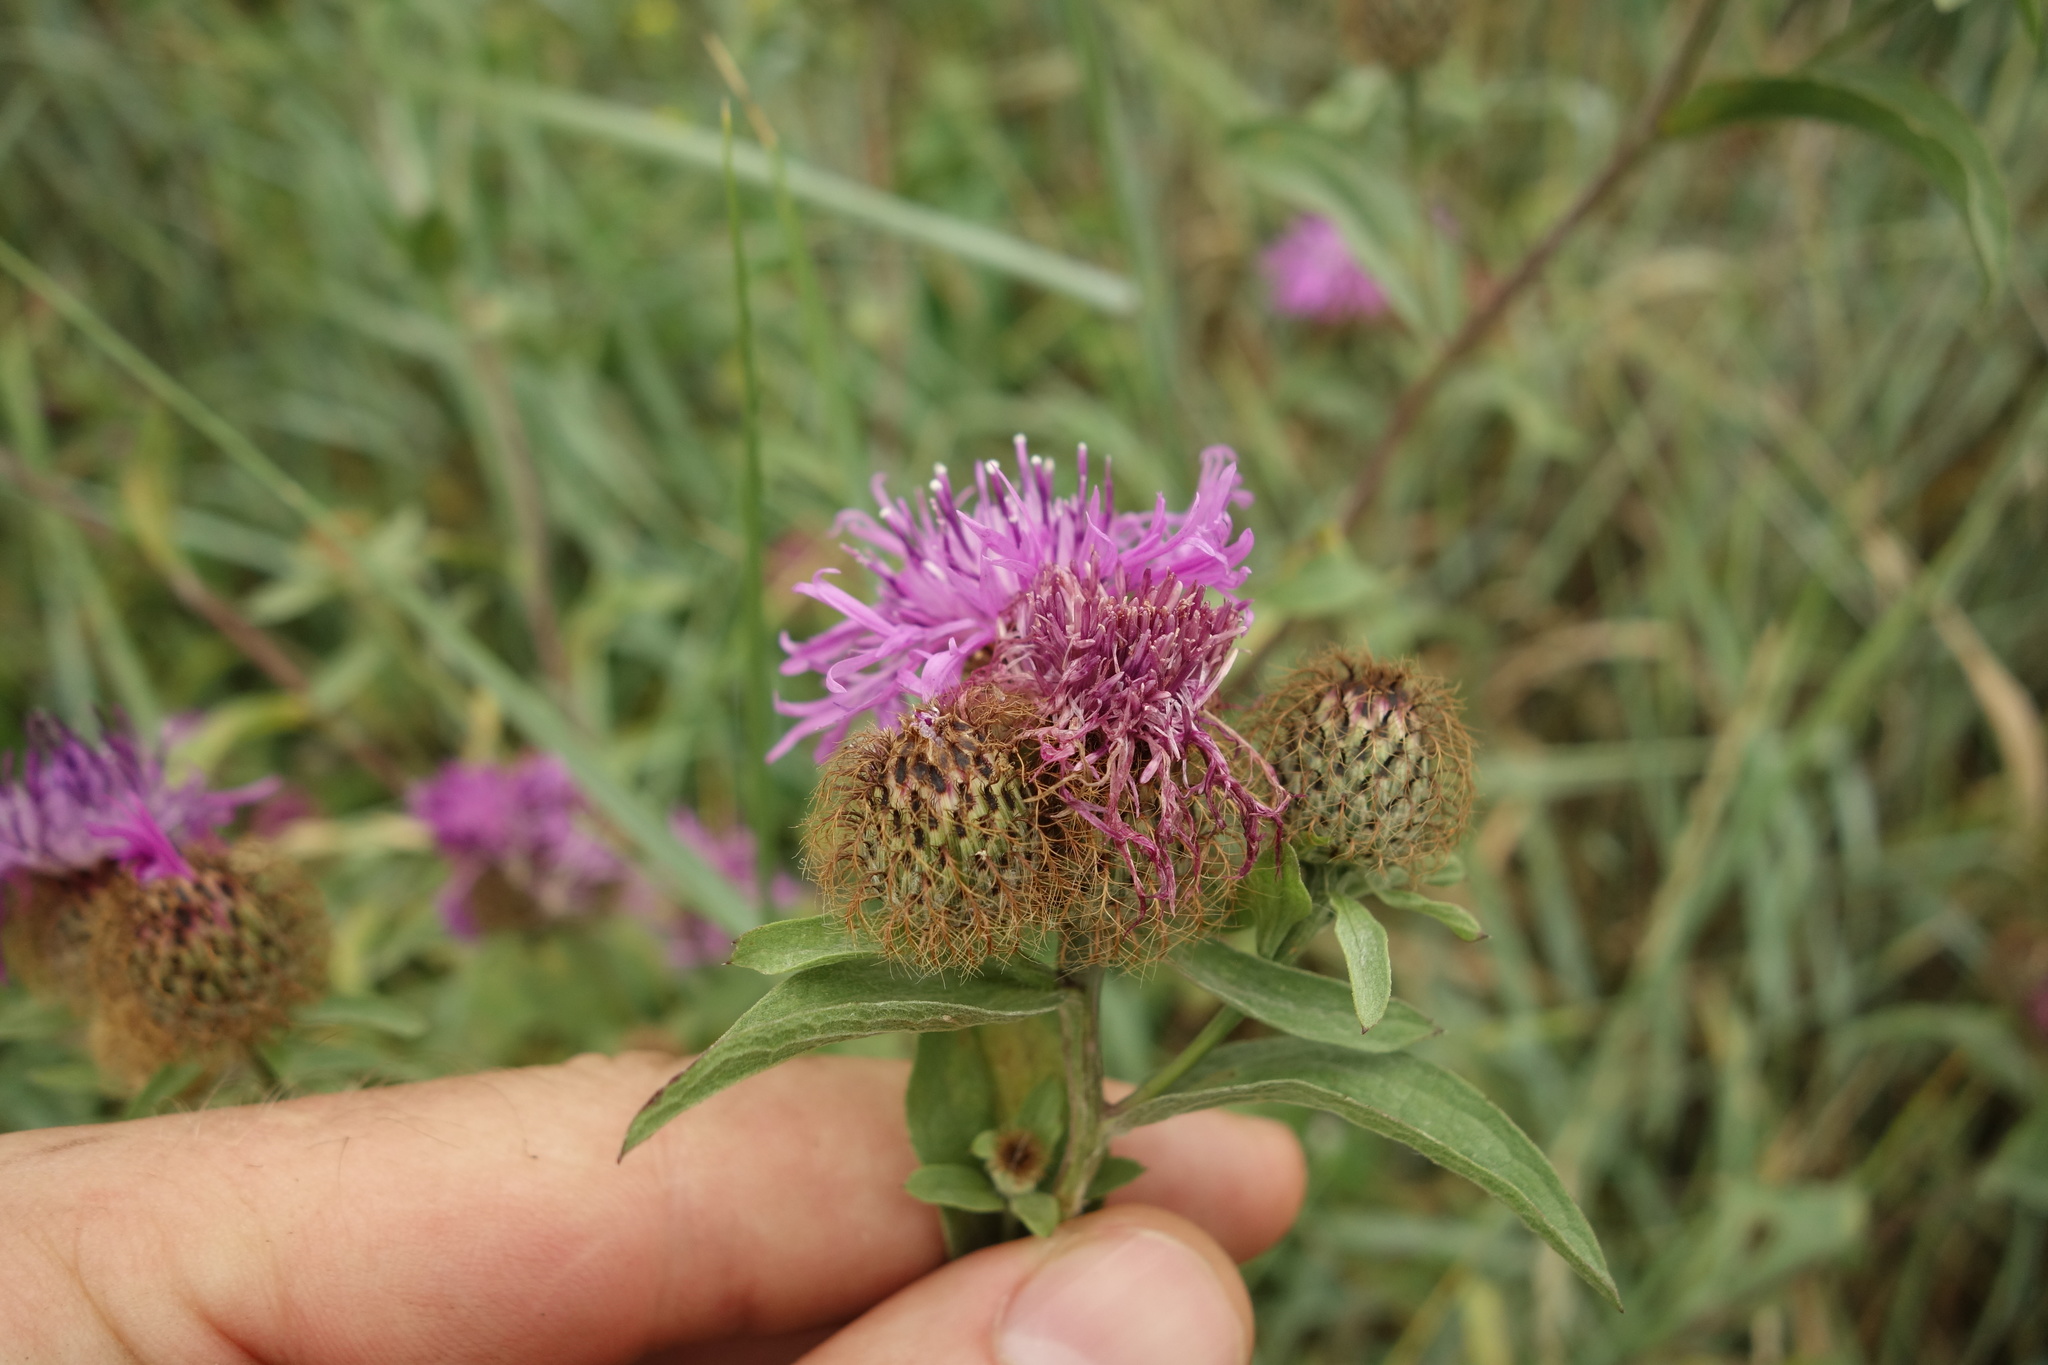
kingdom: Plantae
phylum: Tracheophyta
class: Magnoliopsida
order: Asterales
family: Asteraceae
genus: Centaurea
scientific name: Centaurea pseudophrygia
